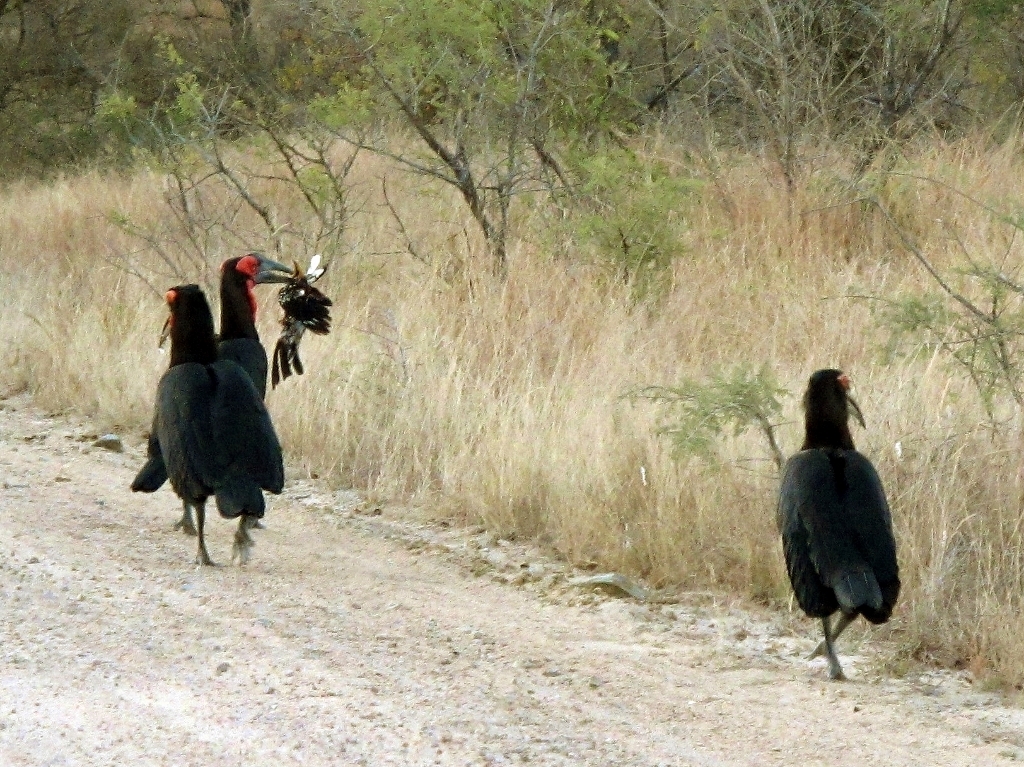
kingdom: Animalia
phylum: Chordata
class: Aves
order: Bucerotiformes
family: Bucerotidae
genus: Tockus
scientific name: Tockus leucomelas
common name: Southern yellow-billed hornbill
